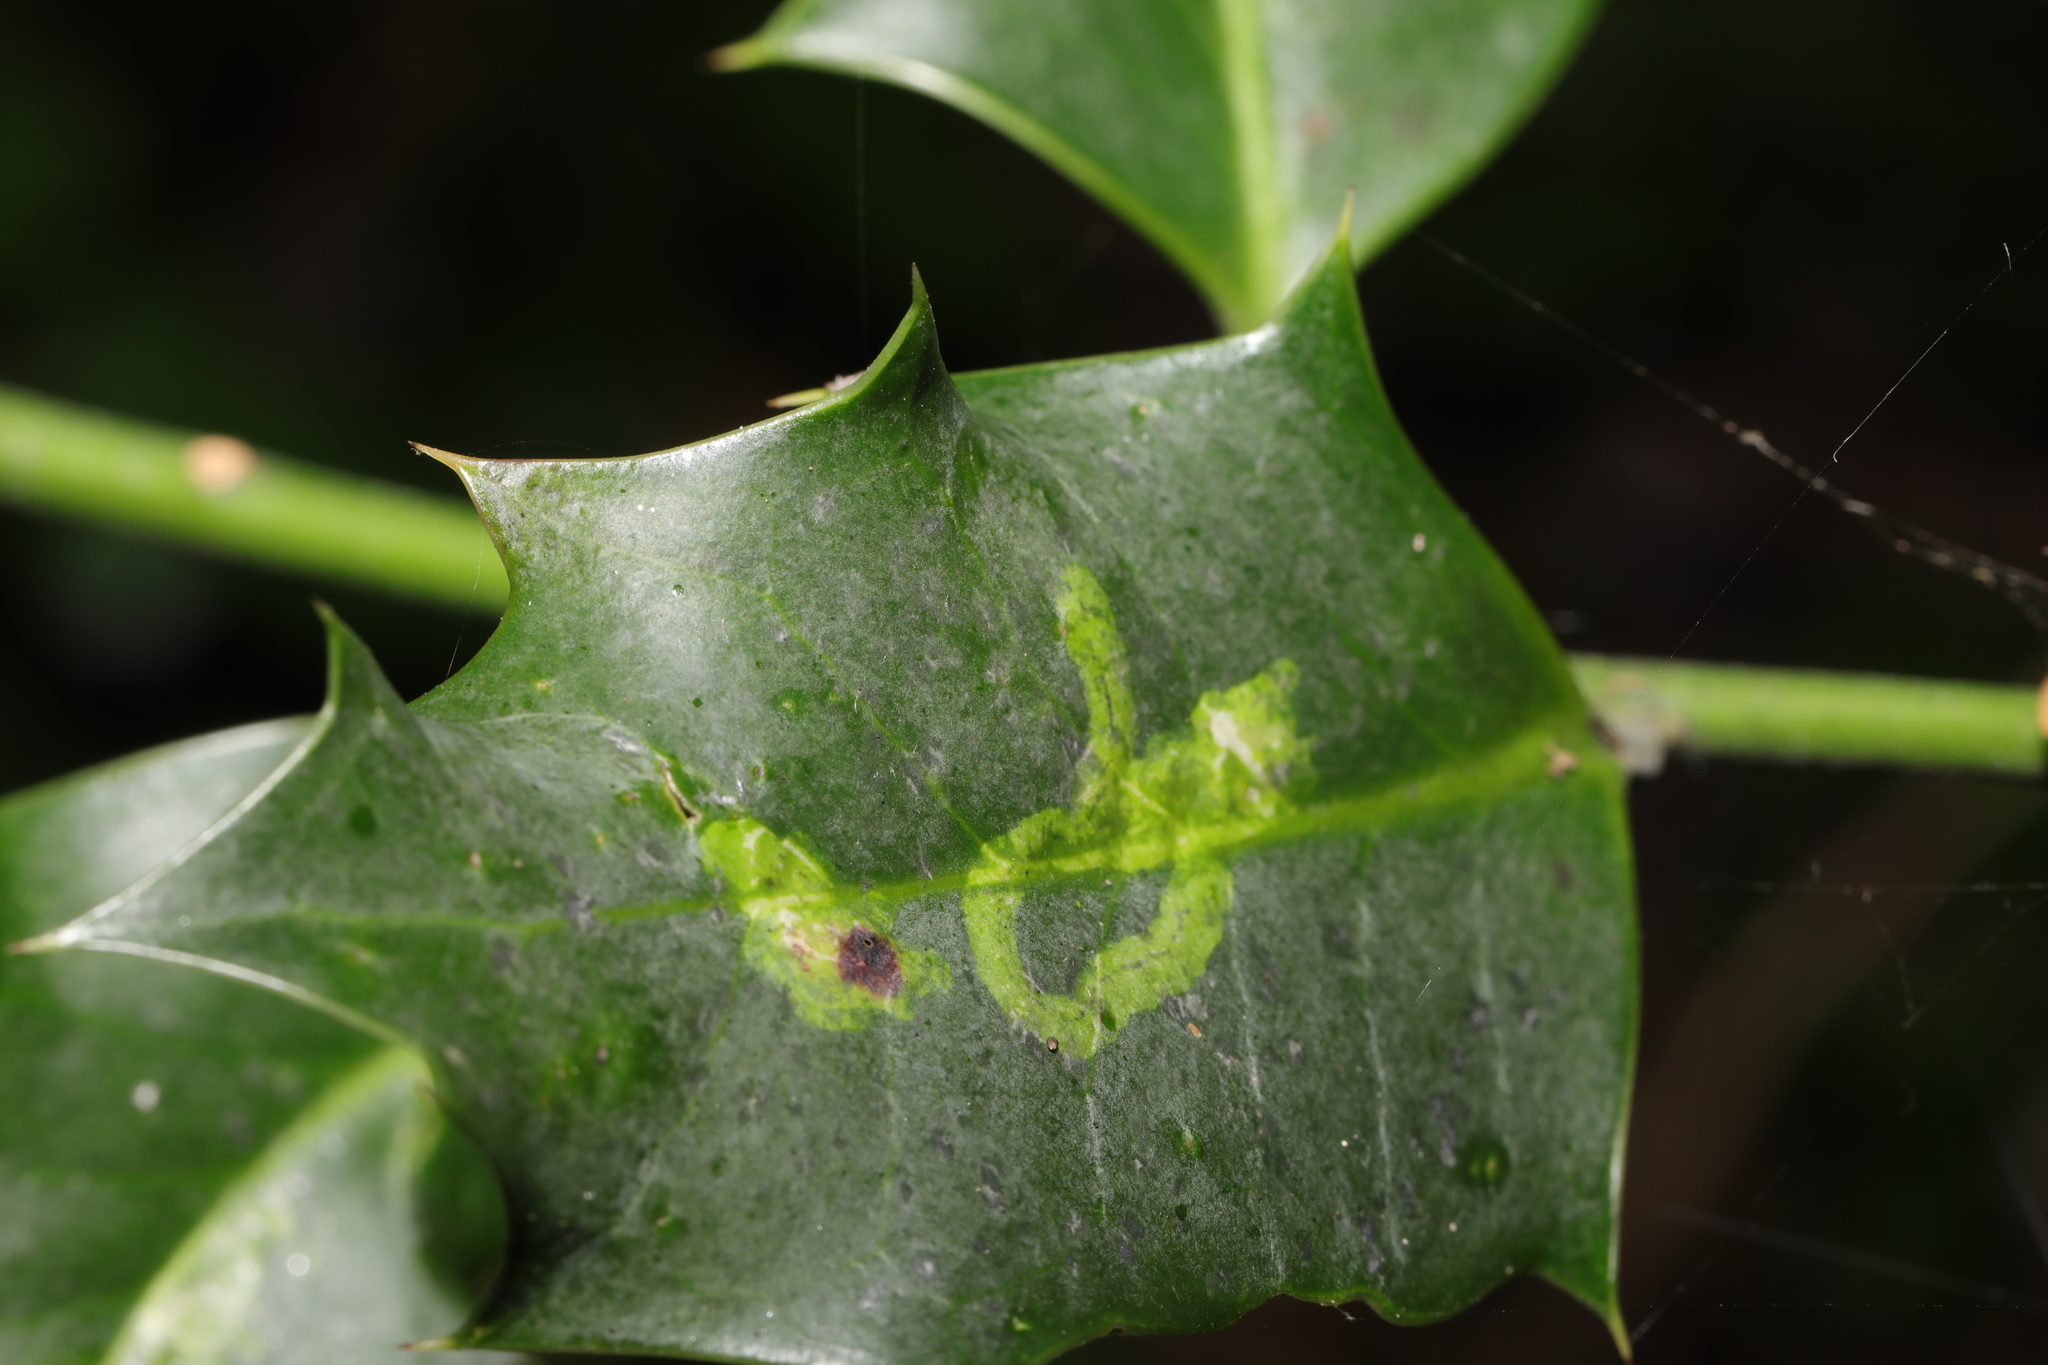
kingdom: Animalia
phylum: Arthropoda
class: Insecta
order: Diptera
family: Agromyzidae
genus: Phytomyza
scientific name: Phytomyza ilicis
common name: Holly leafminer
